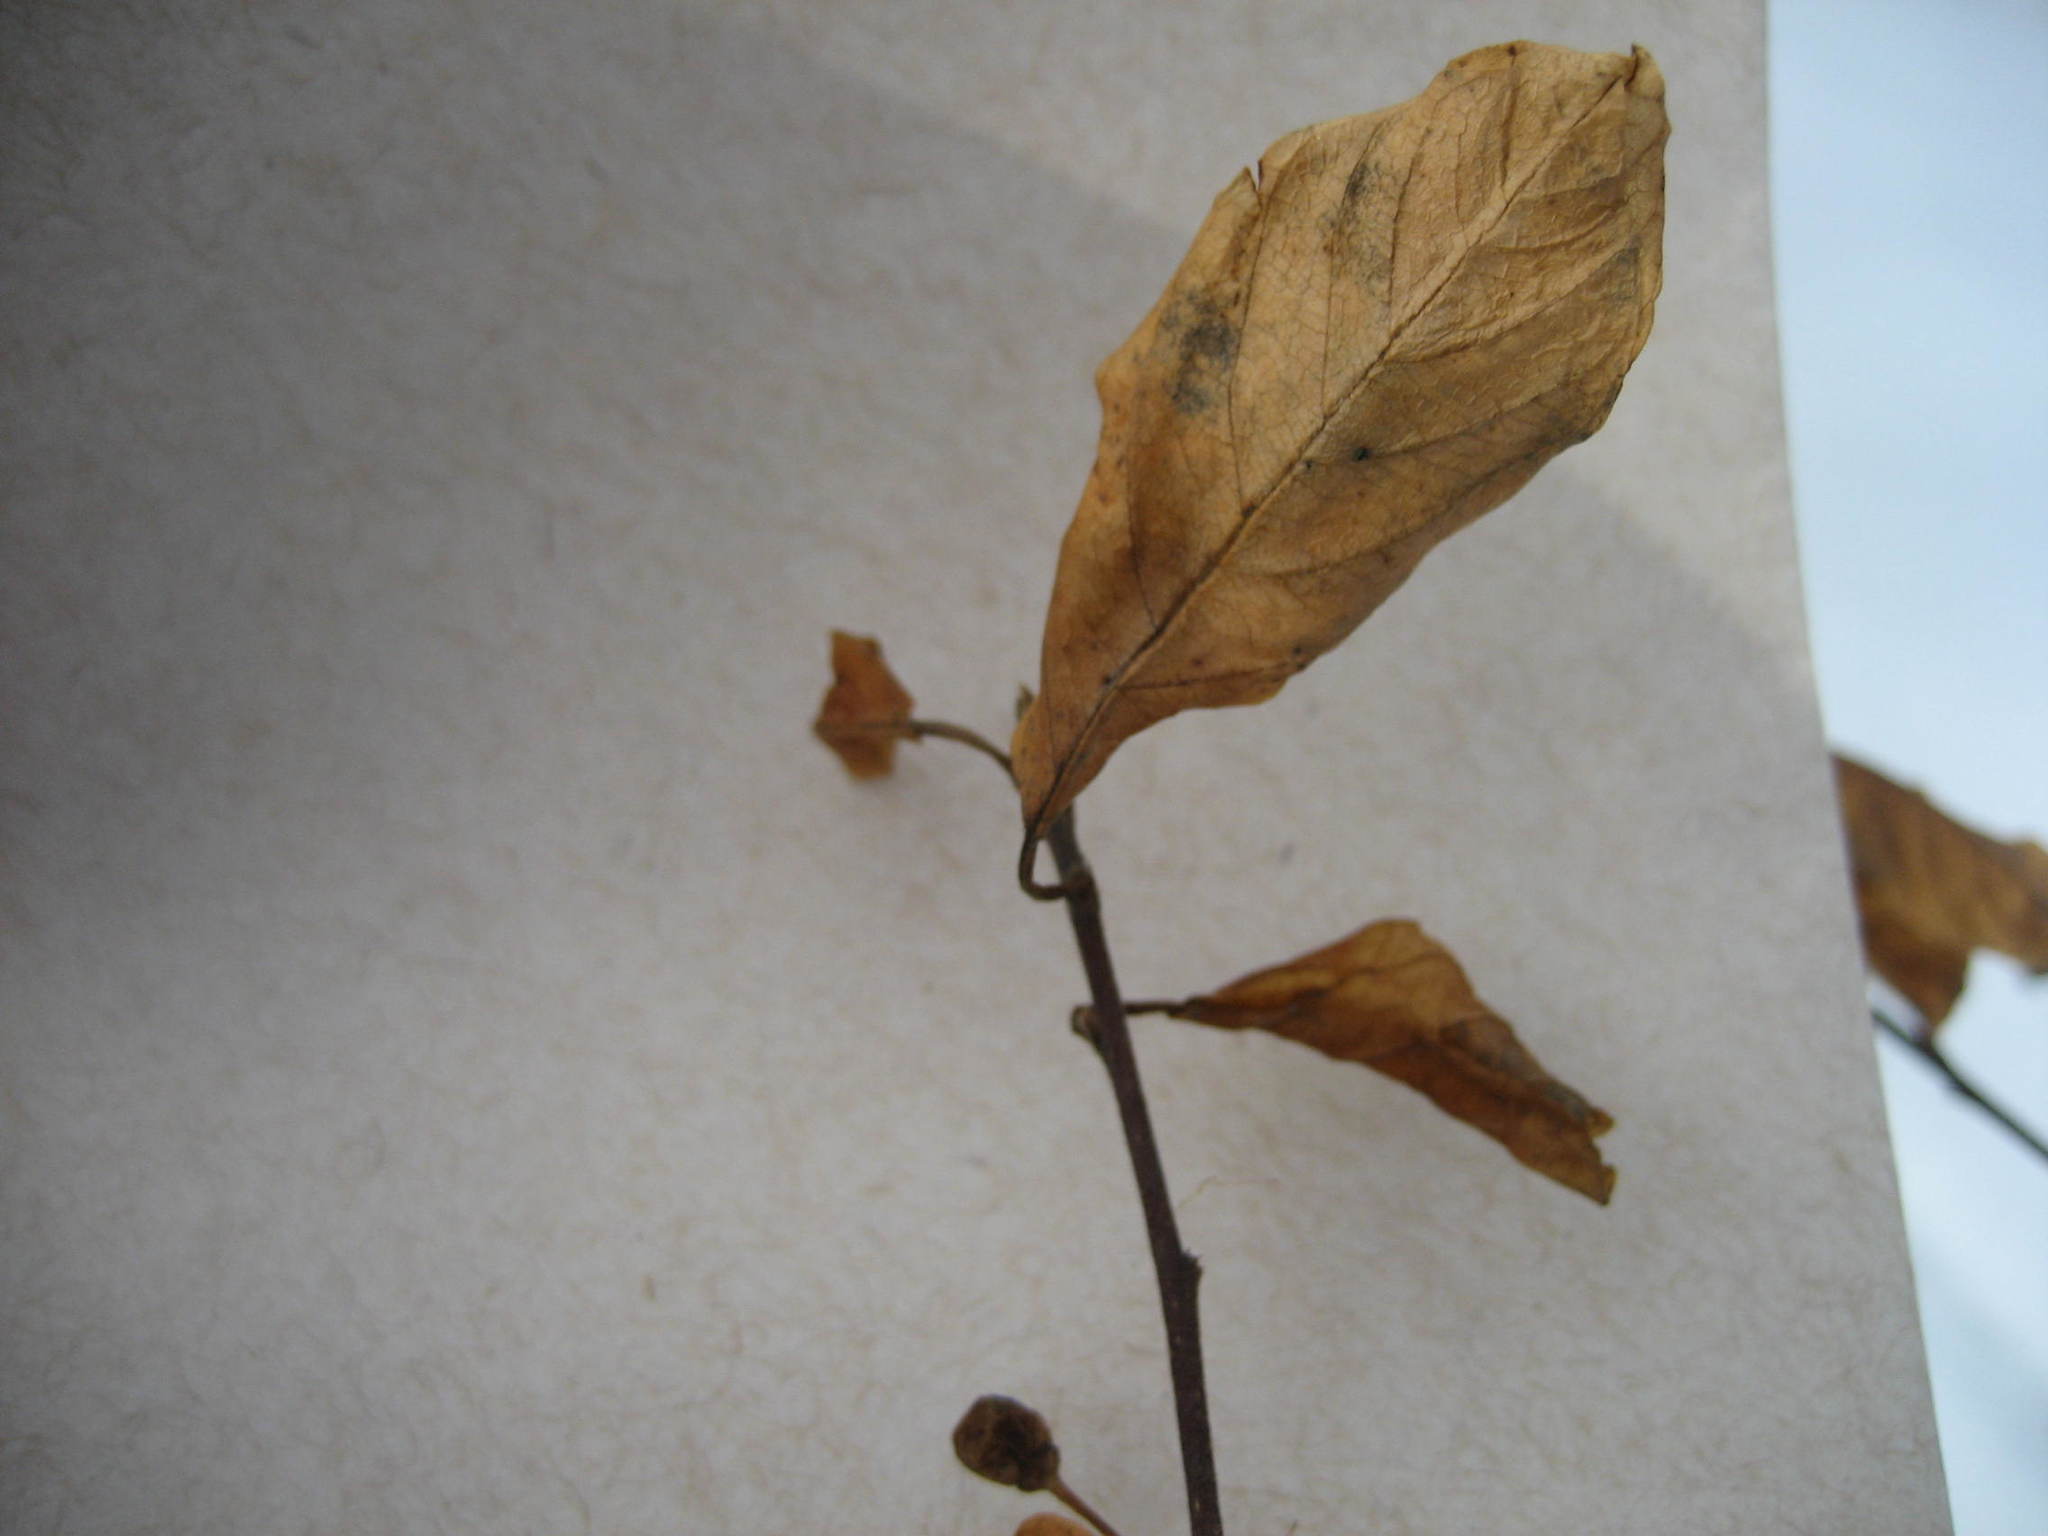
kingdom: Plantae
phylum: Tracheophyta
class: Magnoliopsida
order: Rosales
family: Rhamnaceae
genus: Frangula
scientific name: Frangula alnus
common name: Alder buckthorn
